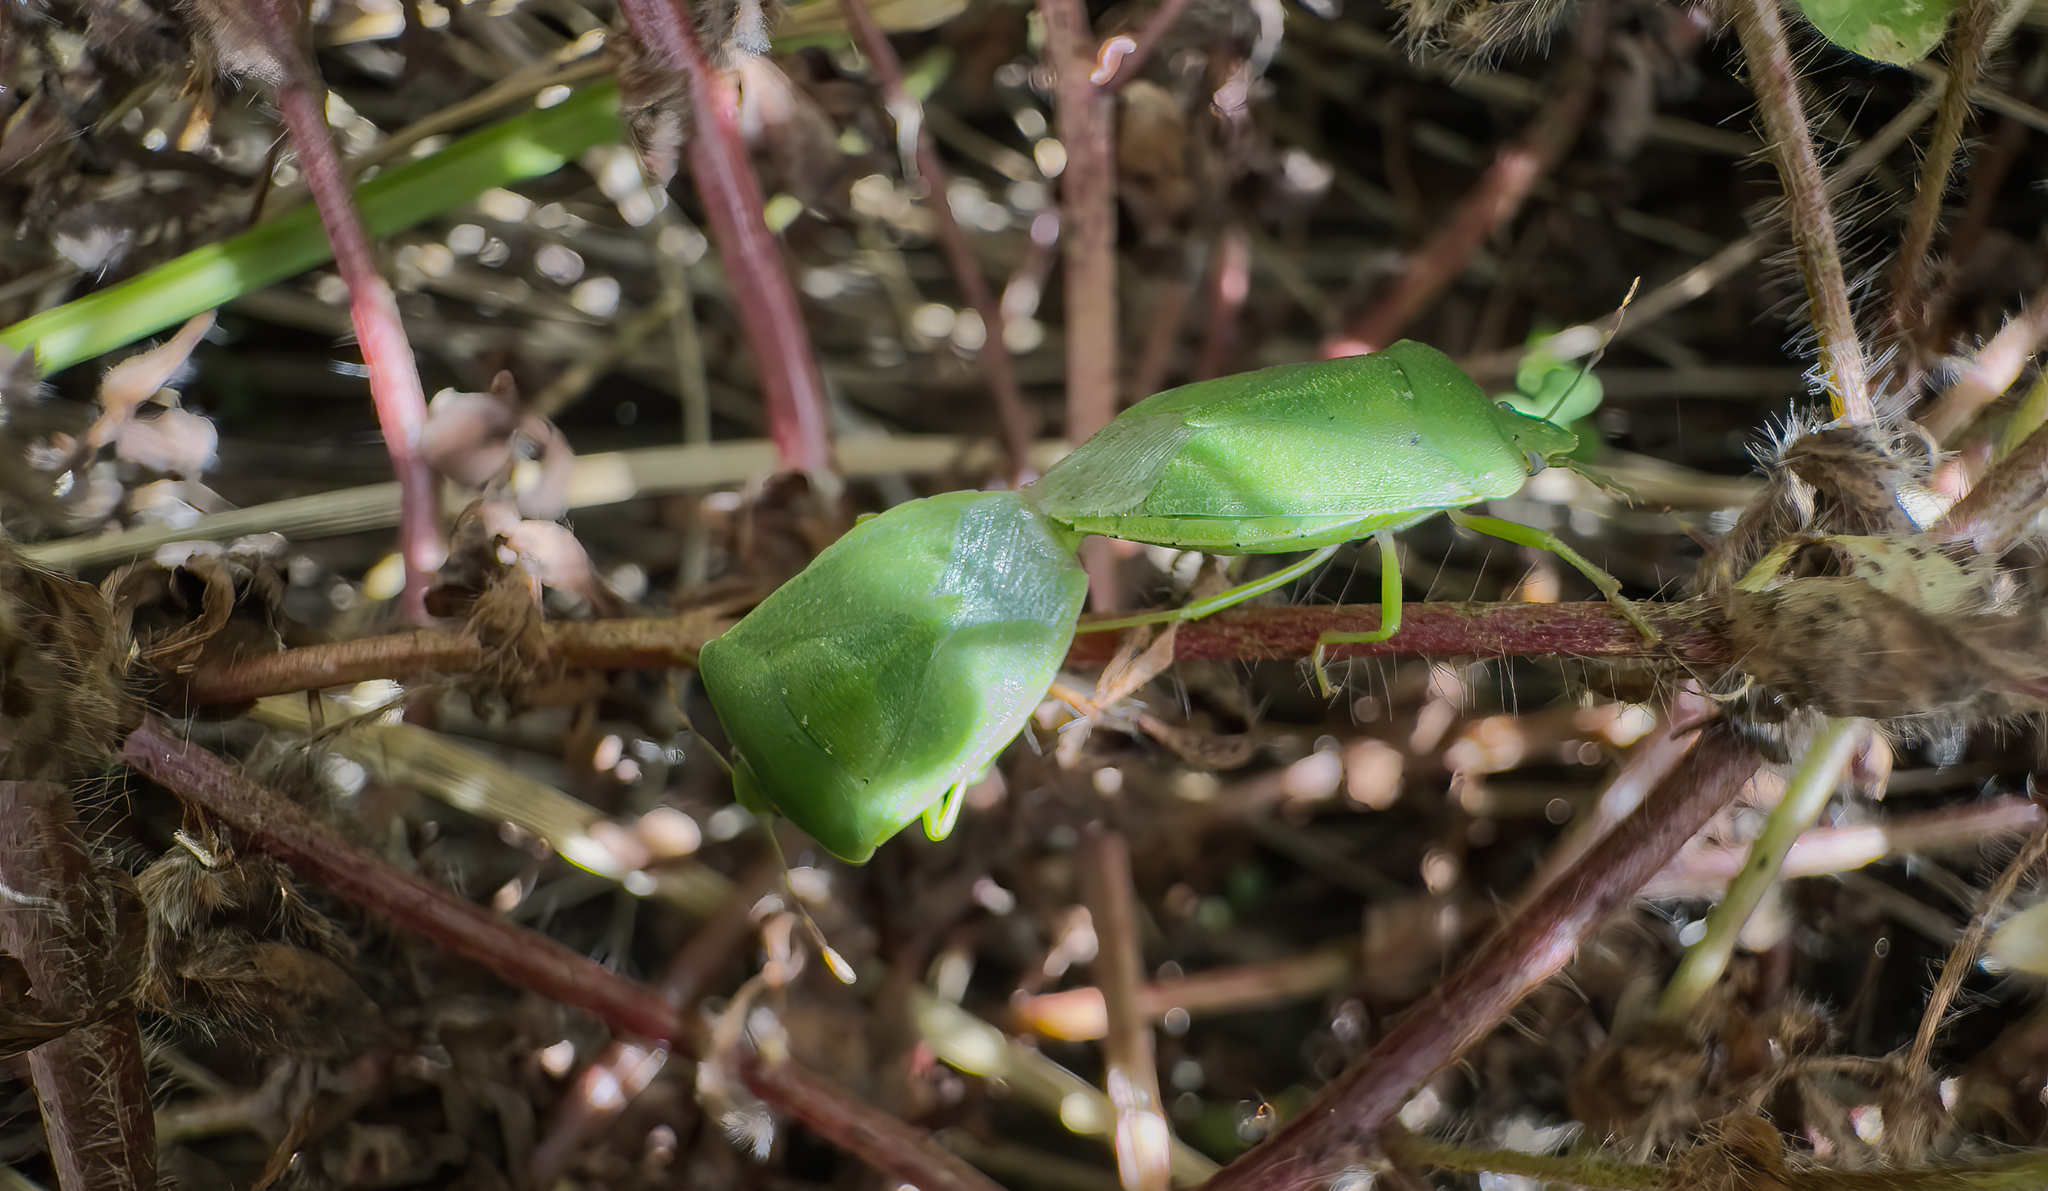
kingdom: Animalia
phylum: Arthropoda
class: Insecta
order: Hemiptera
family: Pentatomidae
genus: Nezara
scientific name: Nezara viridula
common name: Southern green stink bug
